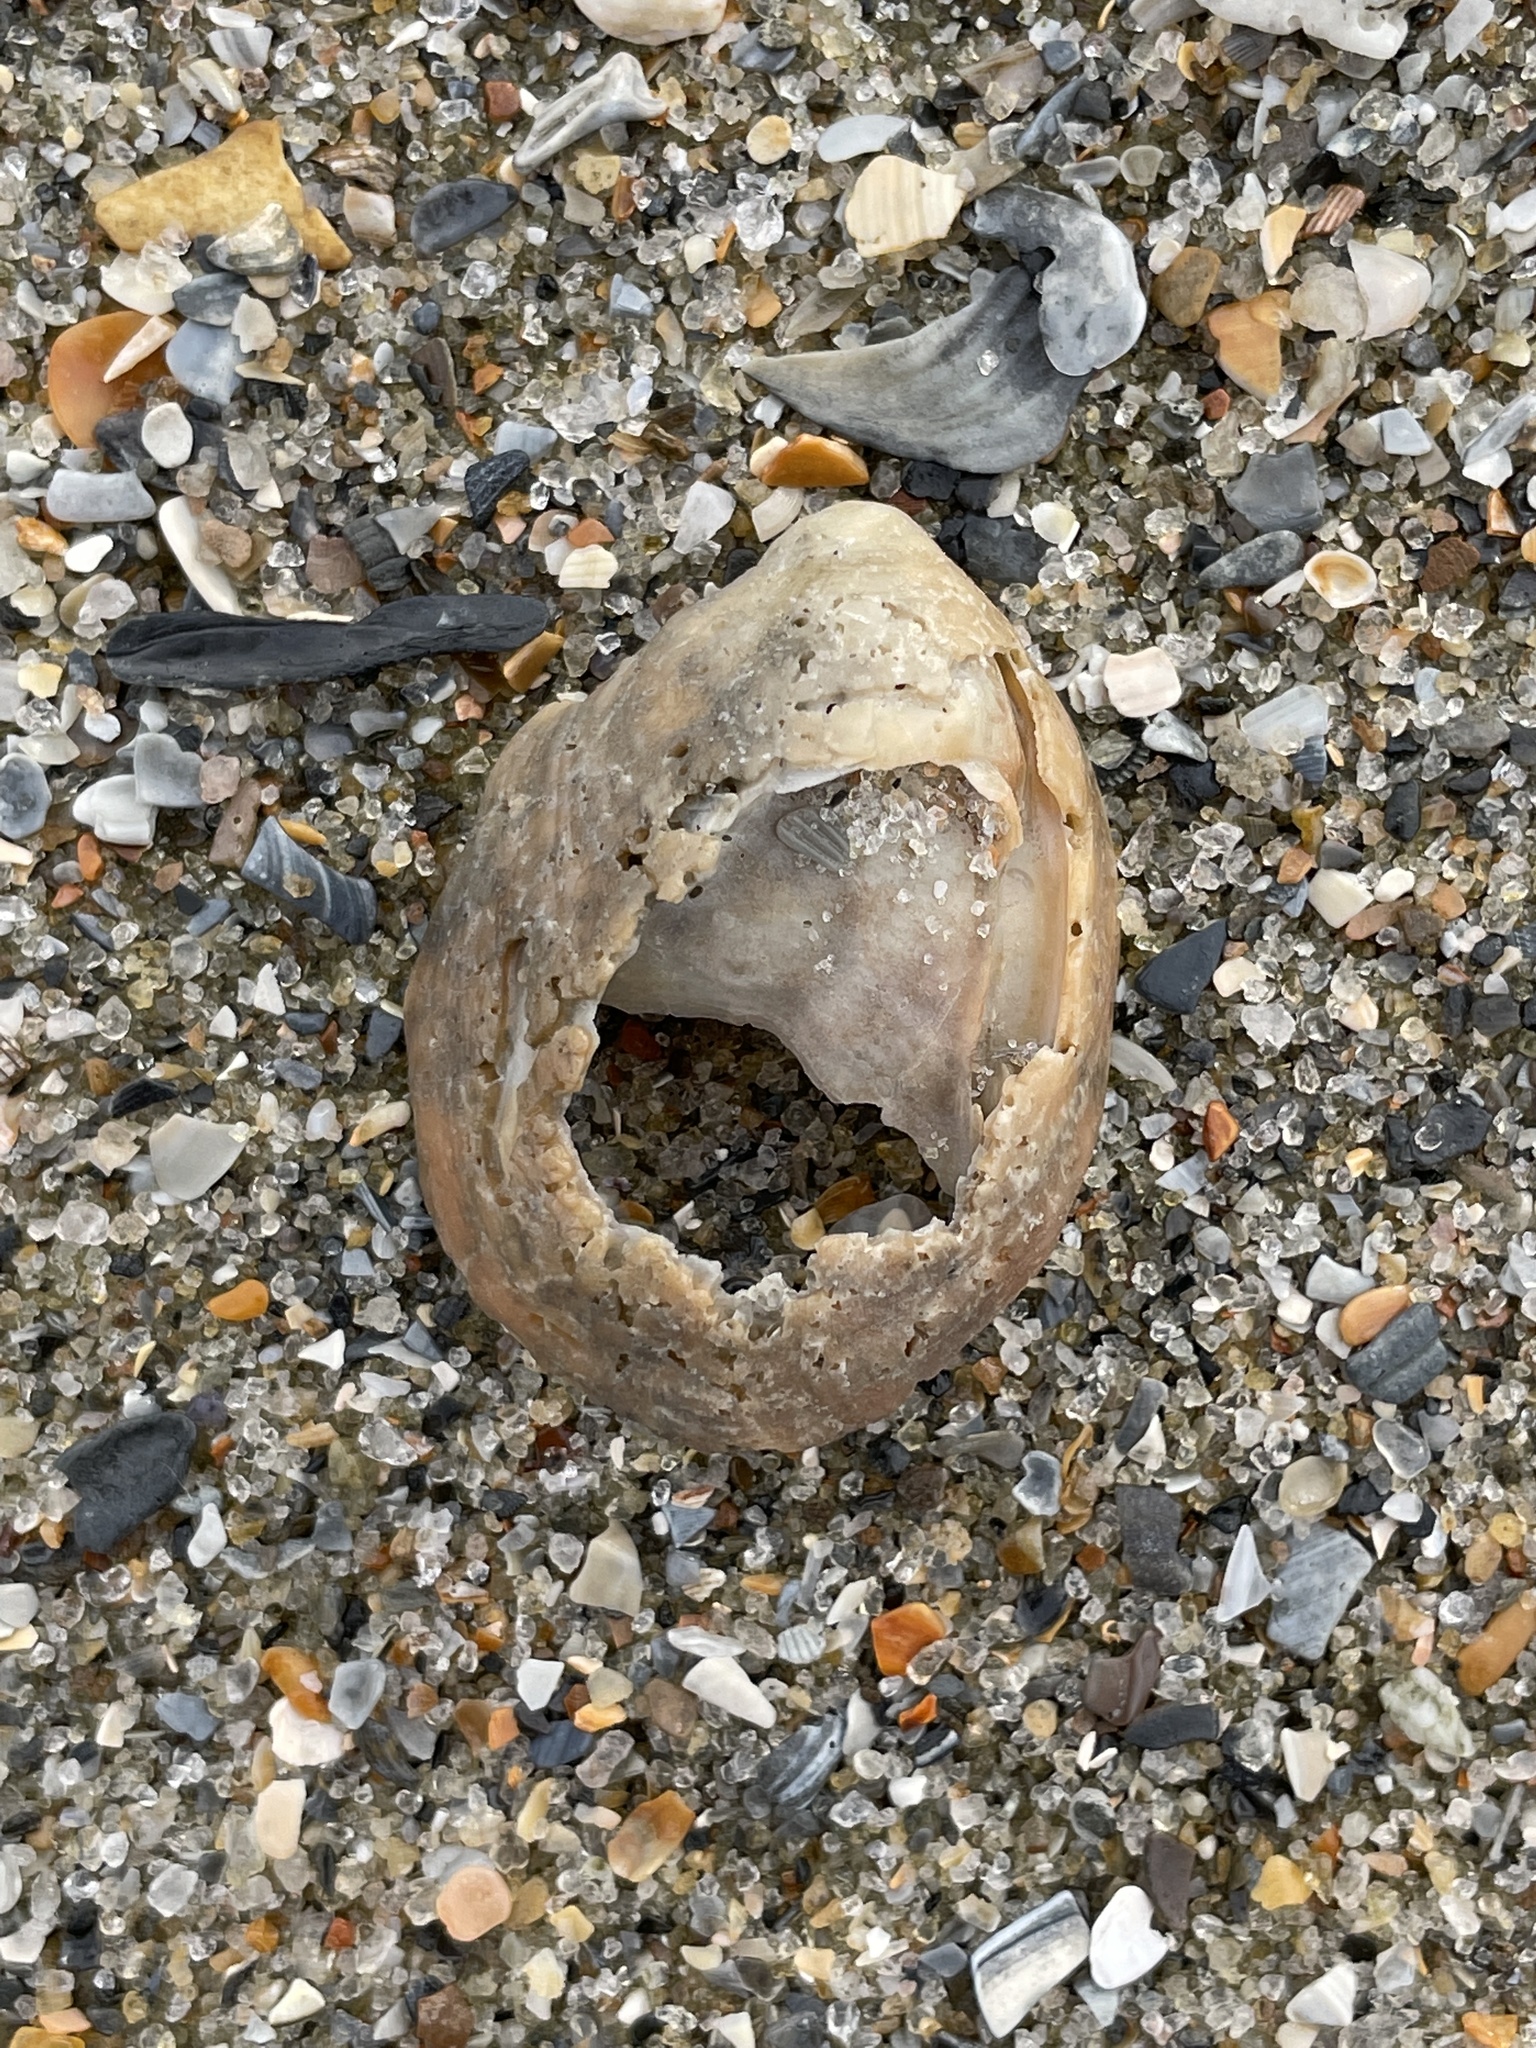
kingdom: Animalia
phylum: Mollusca
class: Gastropoda
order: Littorinimorpha
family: Calyptraeidae
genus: Crepidula
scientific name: Crepidula fornicata
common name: Slipper limpet
